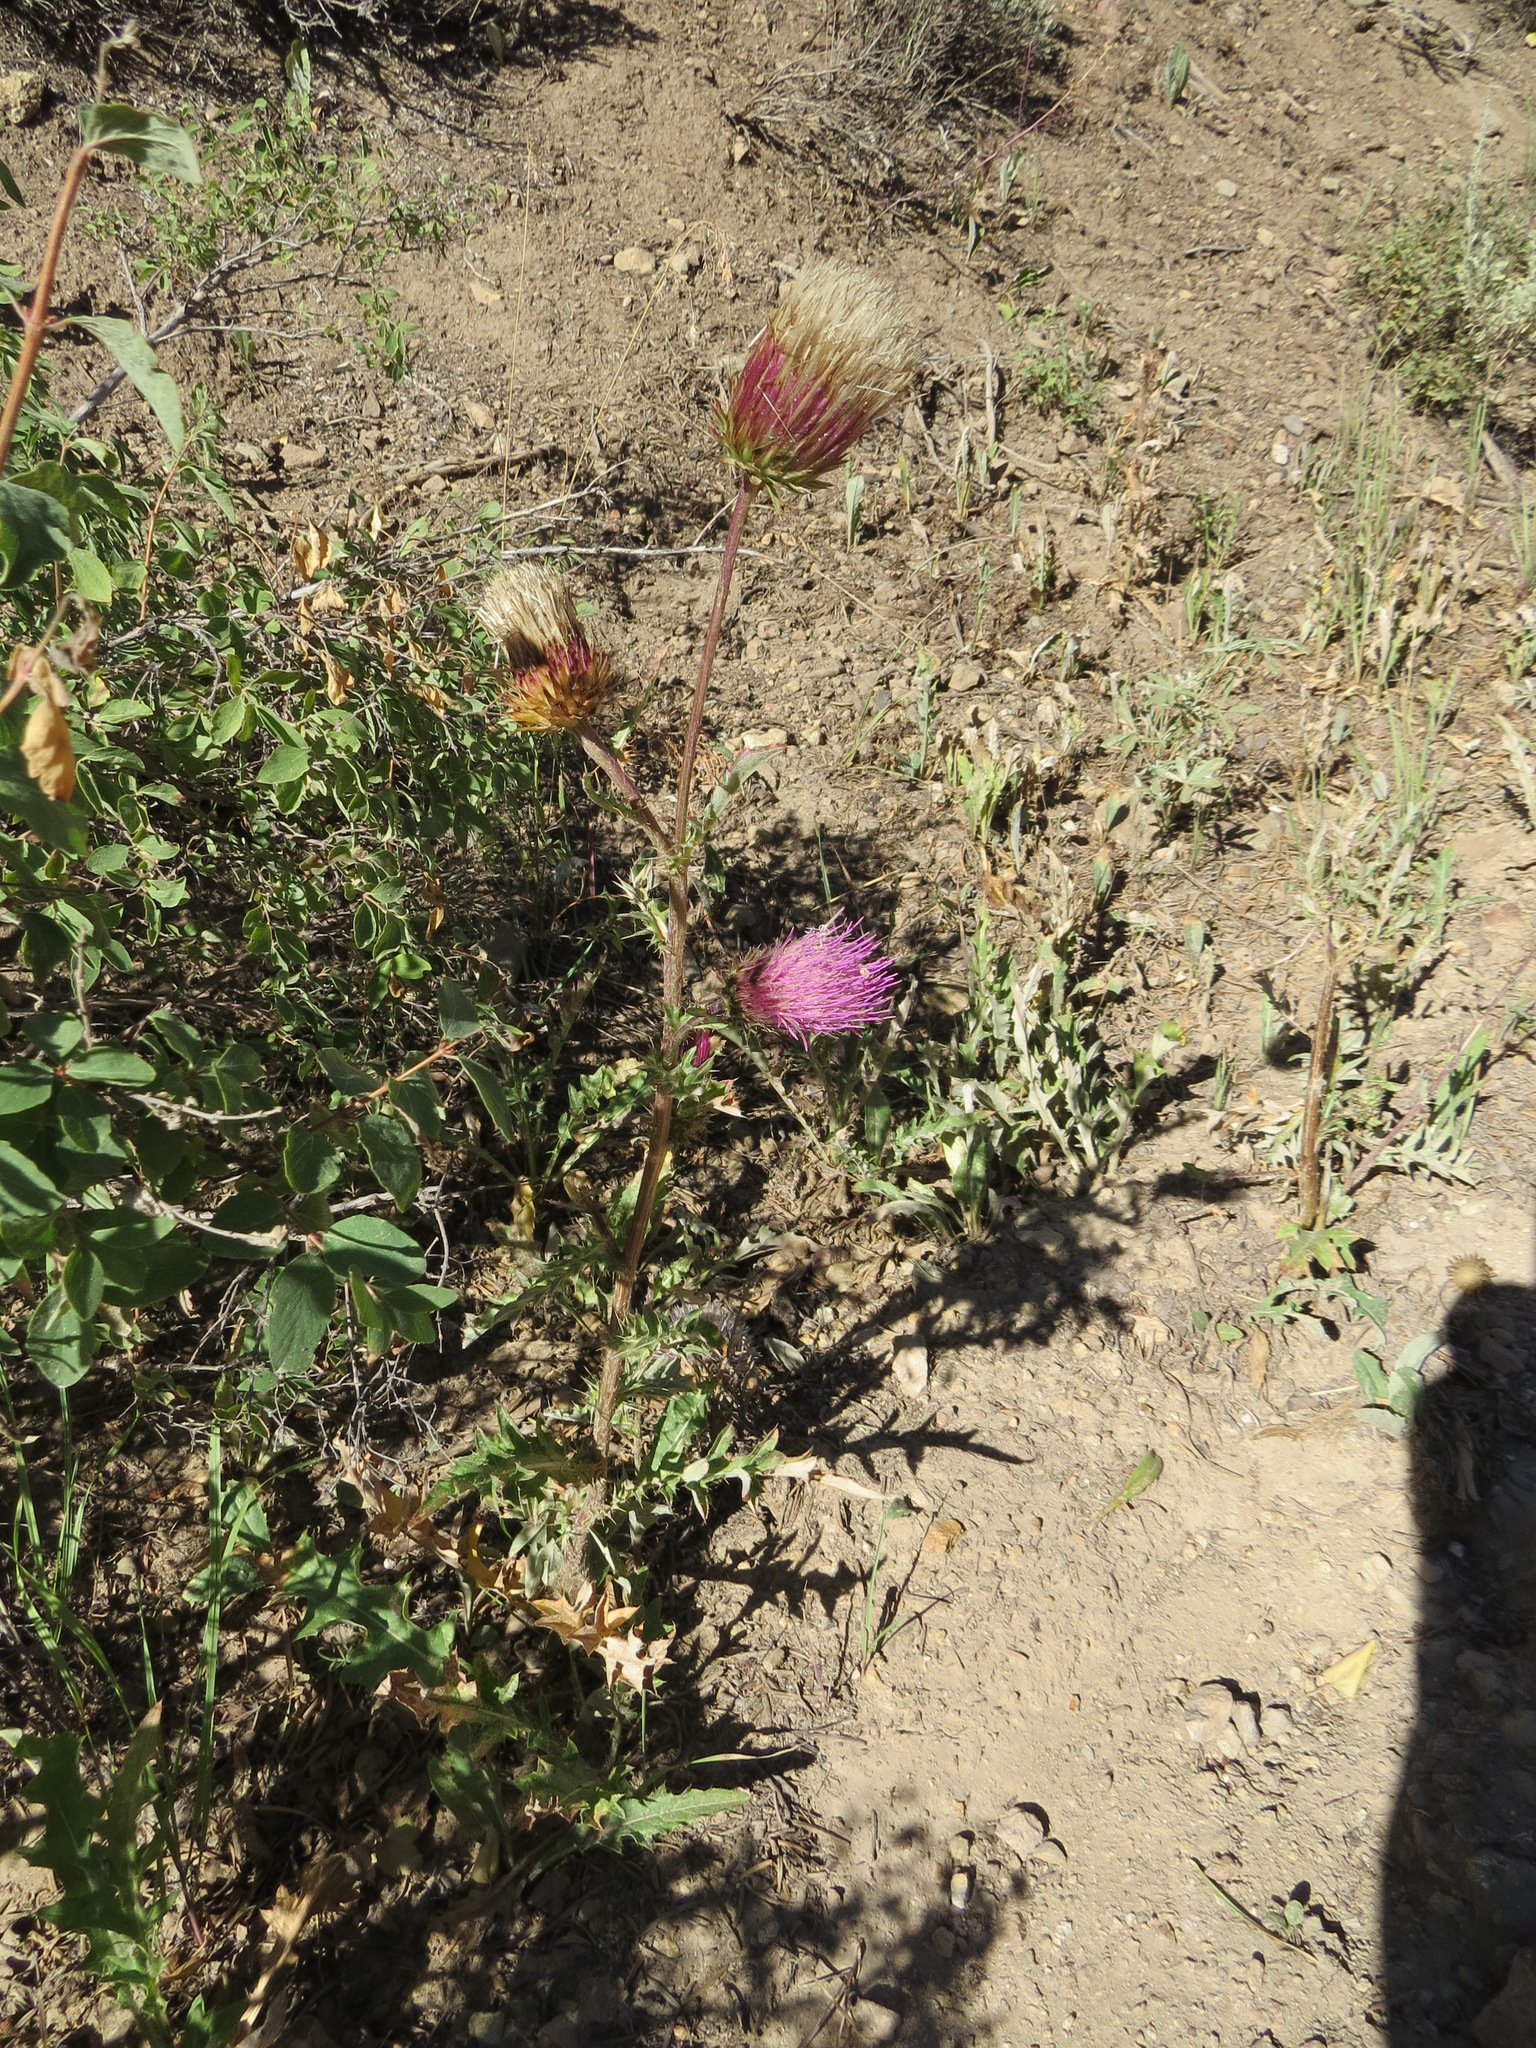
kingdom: Plantae
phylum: Tracheophyta
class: Magnoliopsida
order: Asterales
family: Asteraceae
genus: Cirsium
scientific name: Cirsium andersonii
